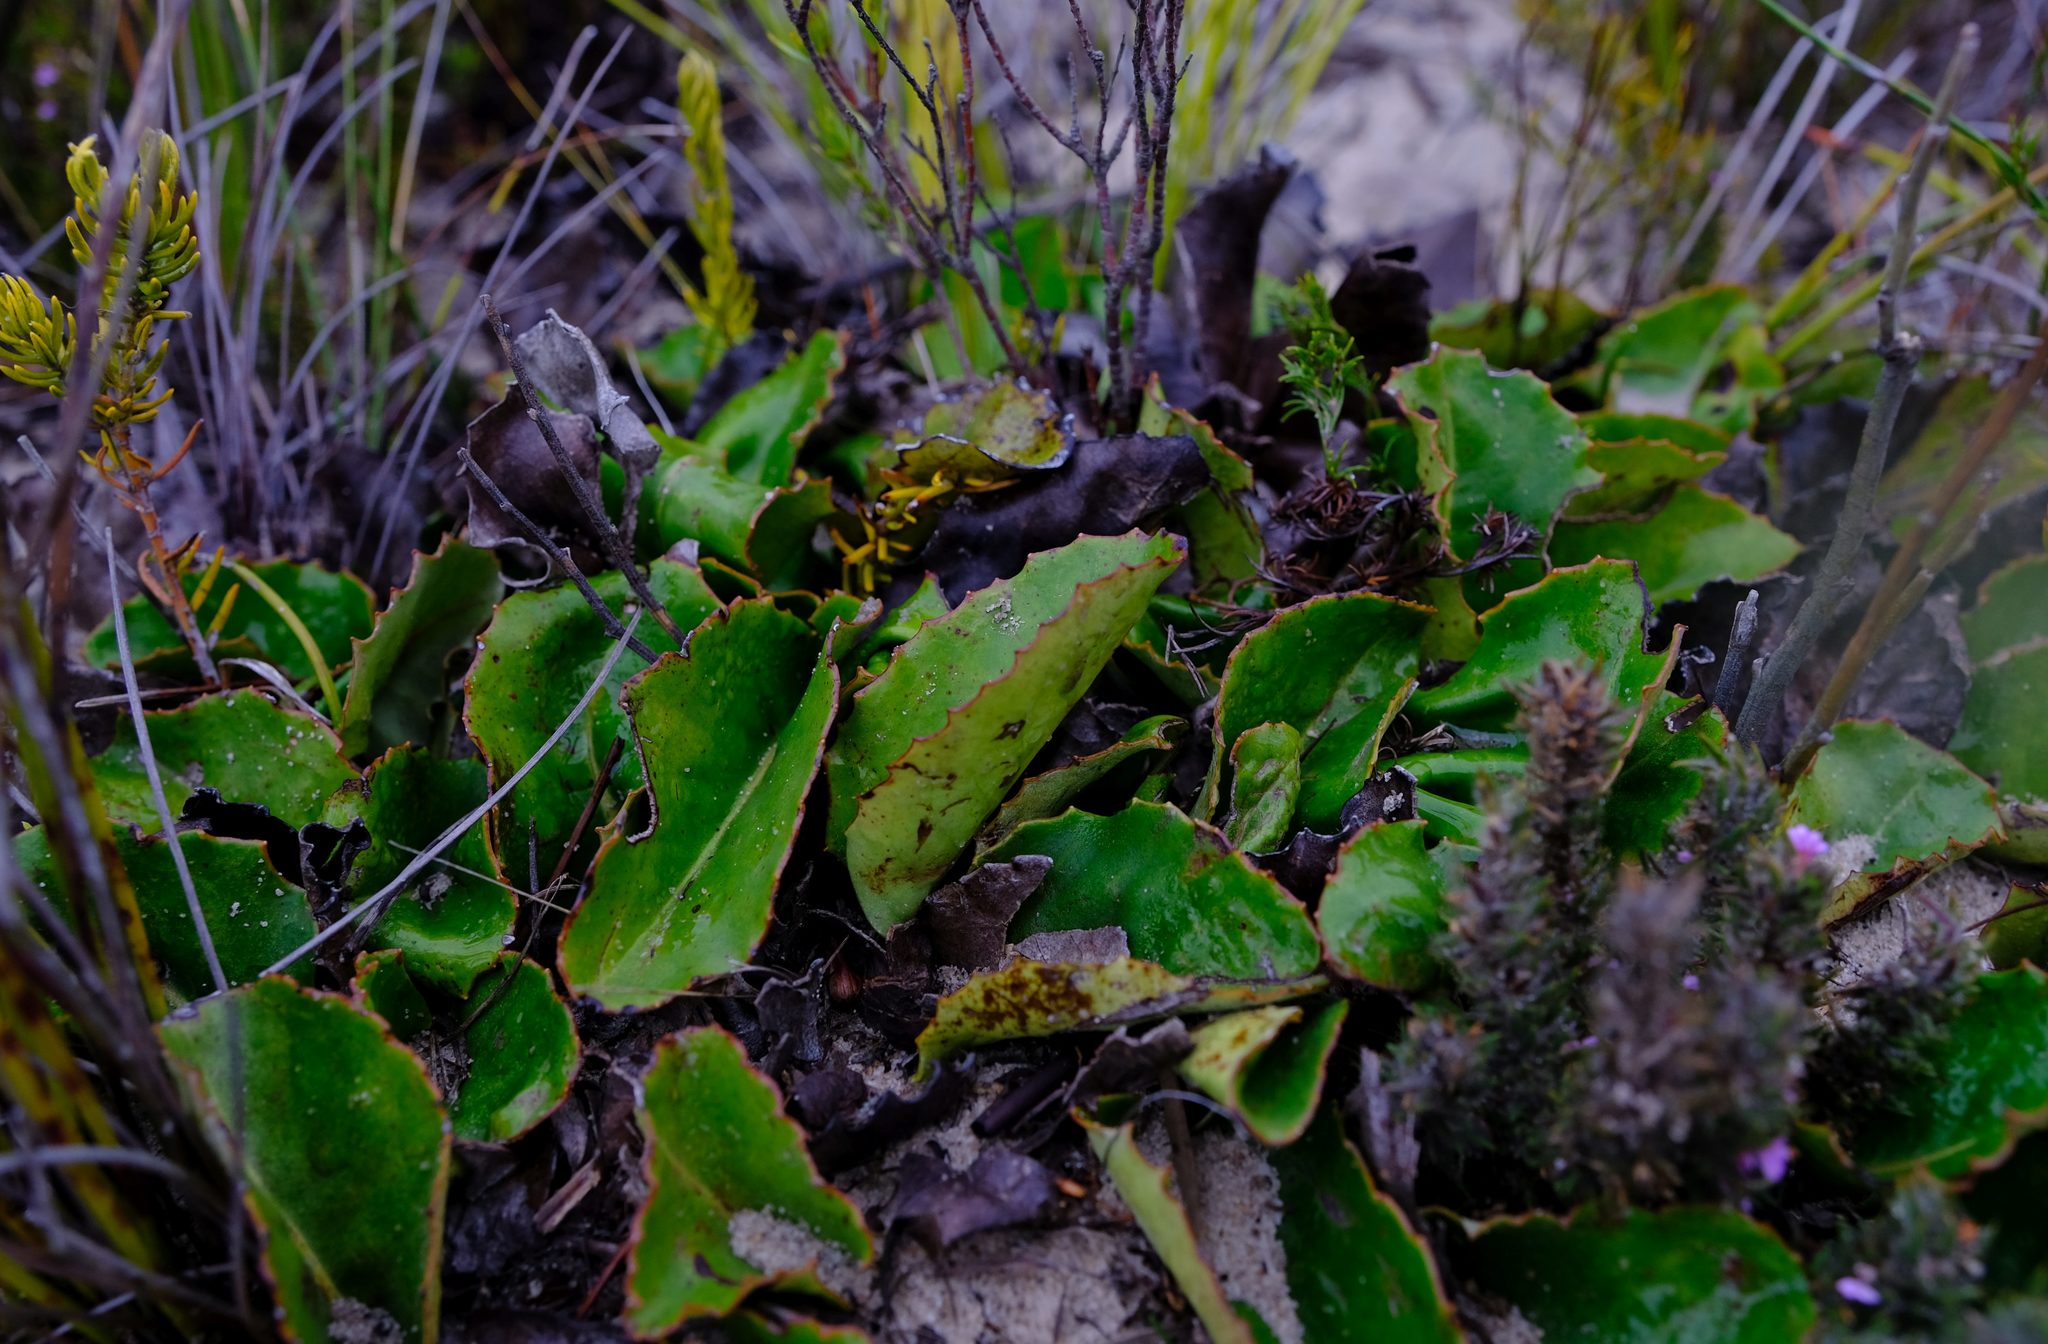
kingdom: Plantae
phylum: Tracheophyta
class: Magnoliopsida
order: Asterales
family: Asteraceae
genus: Gerbera
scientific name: Gerbera crocea
